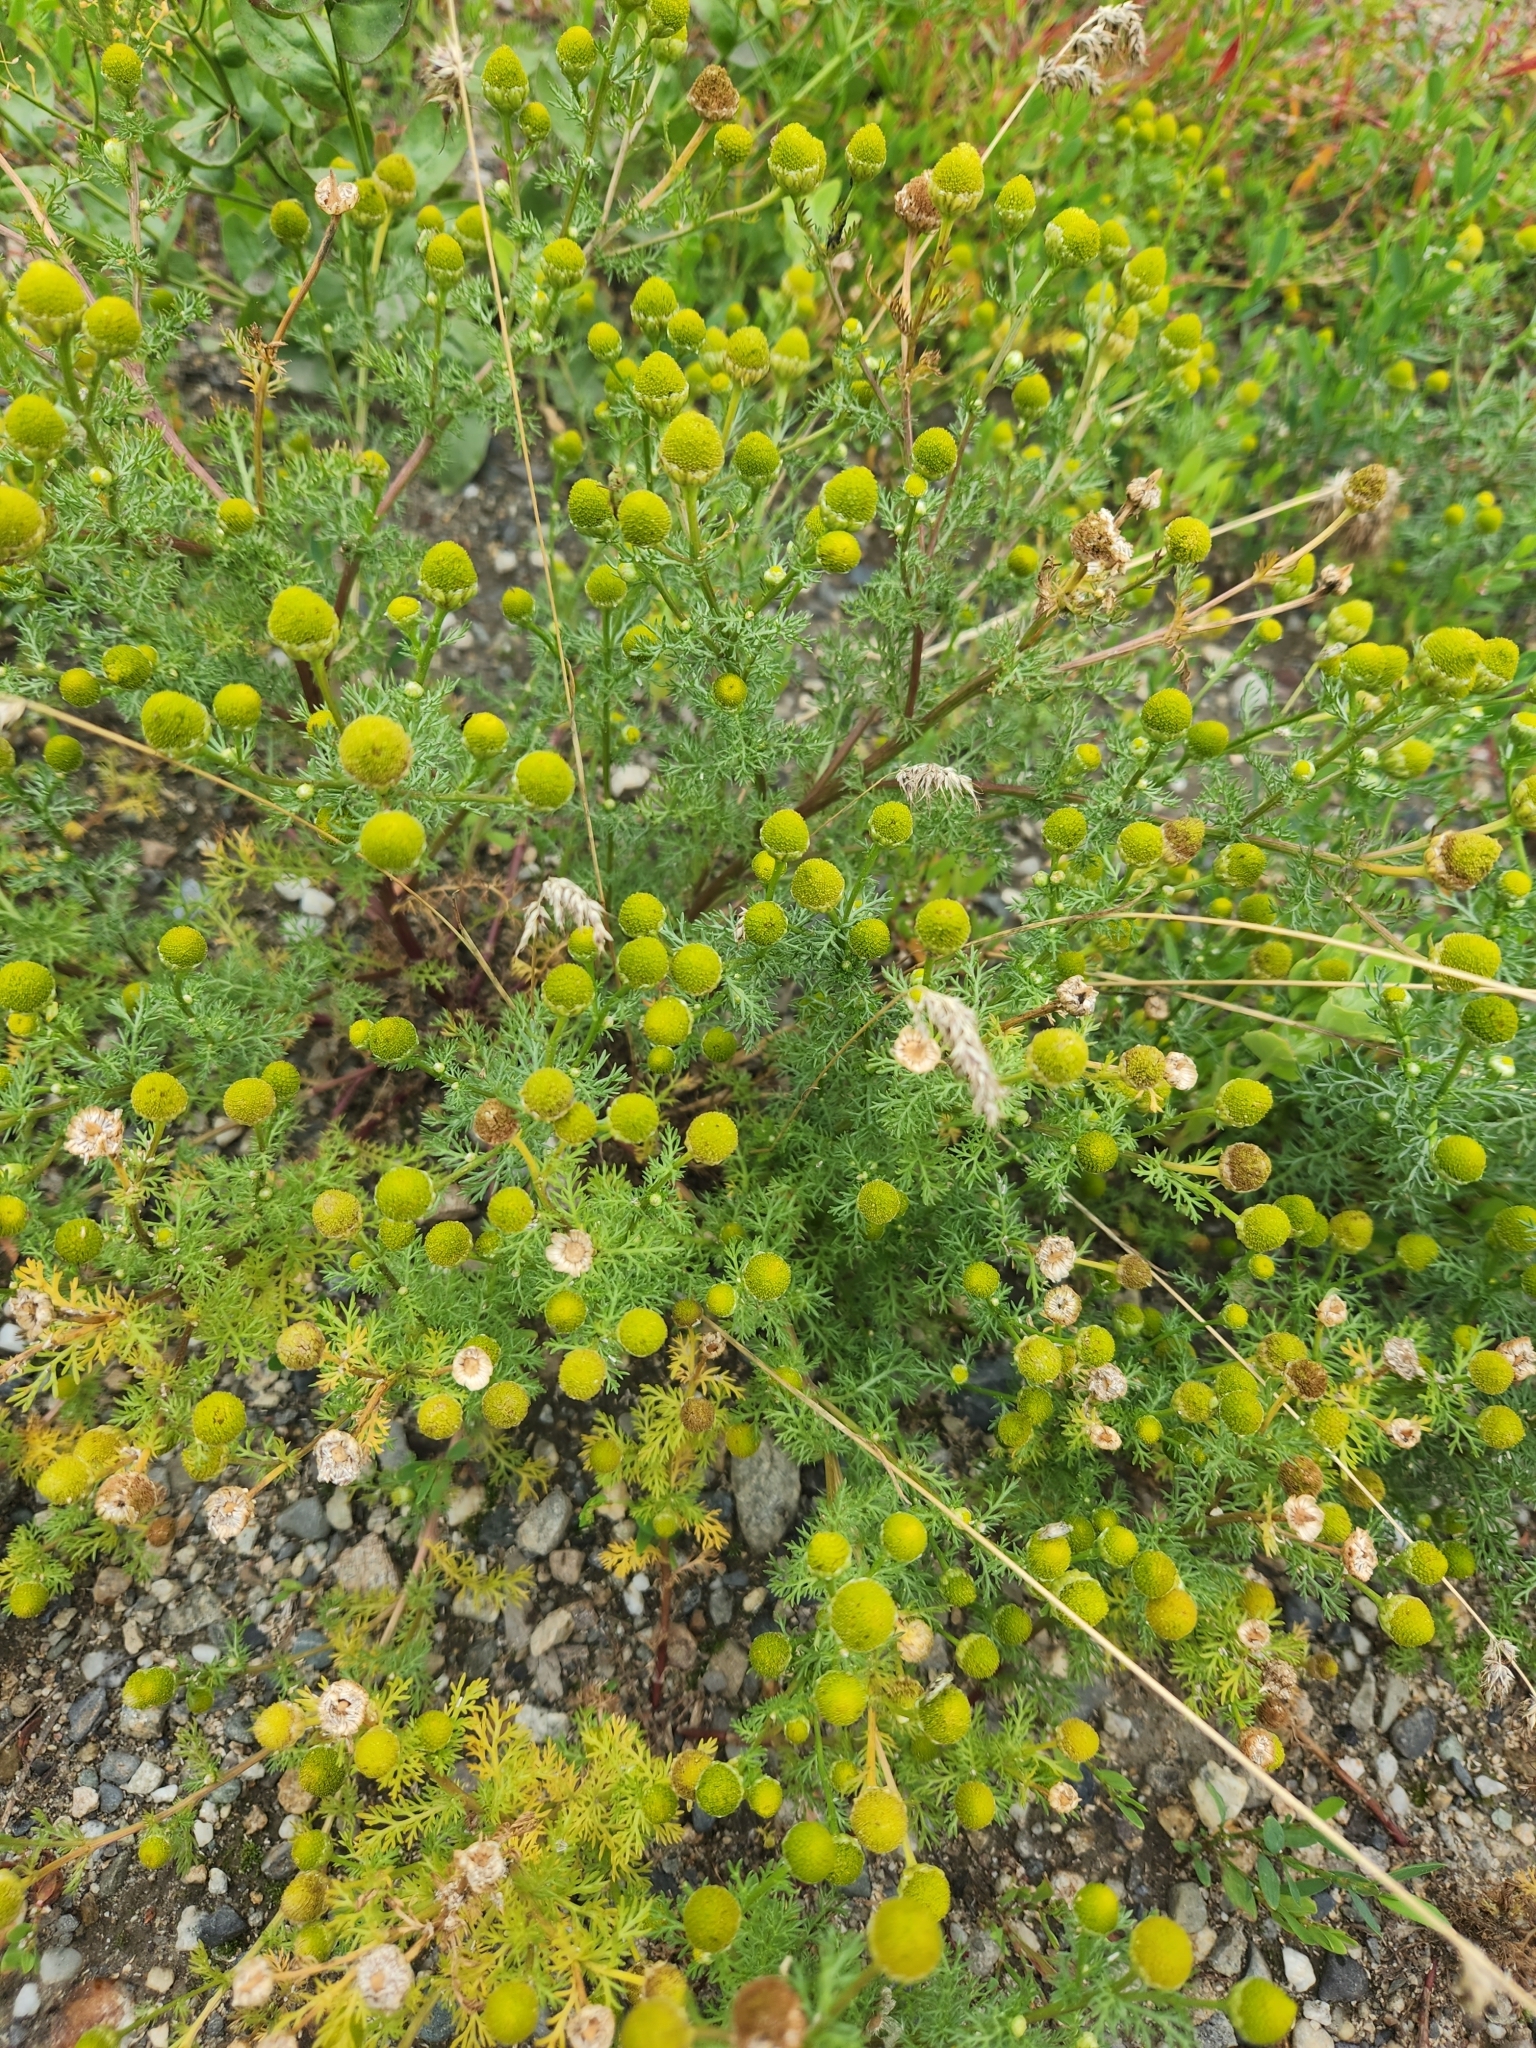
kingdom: Plantae
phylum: Tracheophyta
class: Magnoliopsida
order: Asterales
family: Asteraceae
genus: Matricaria
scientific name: Matricaria discoidea
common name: Disc mayweed
